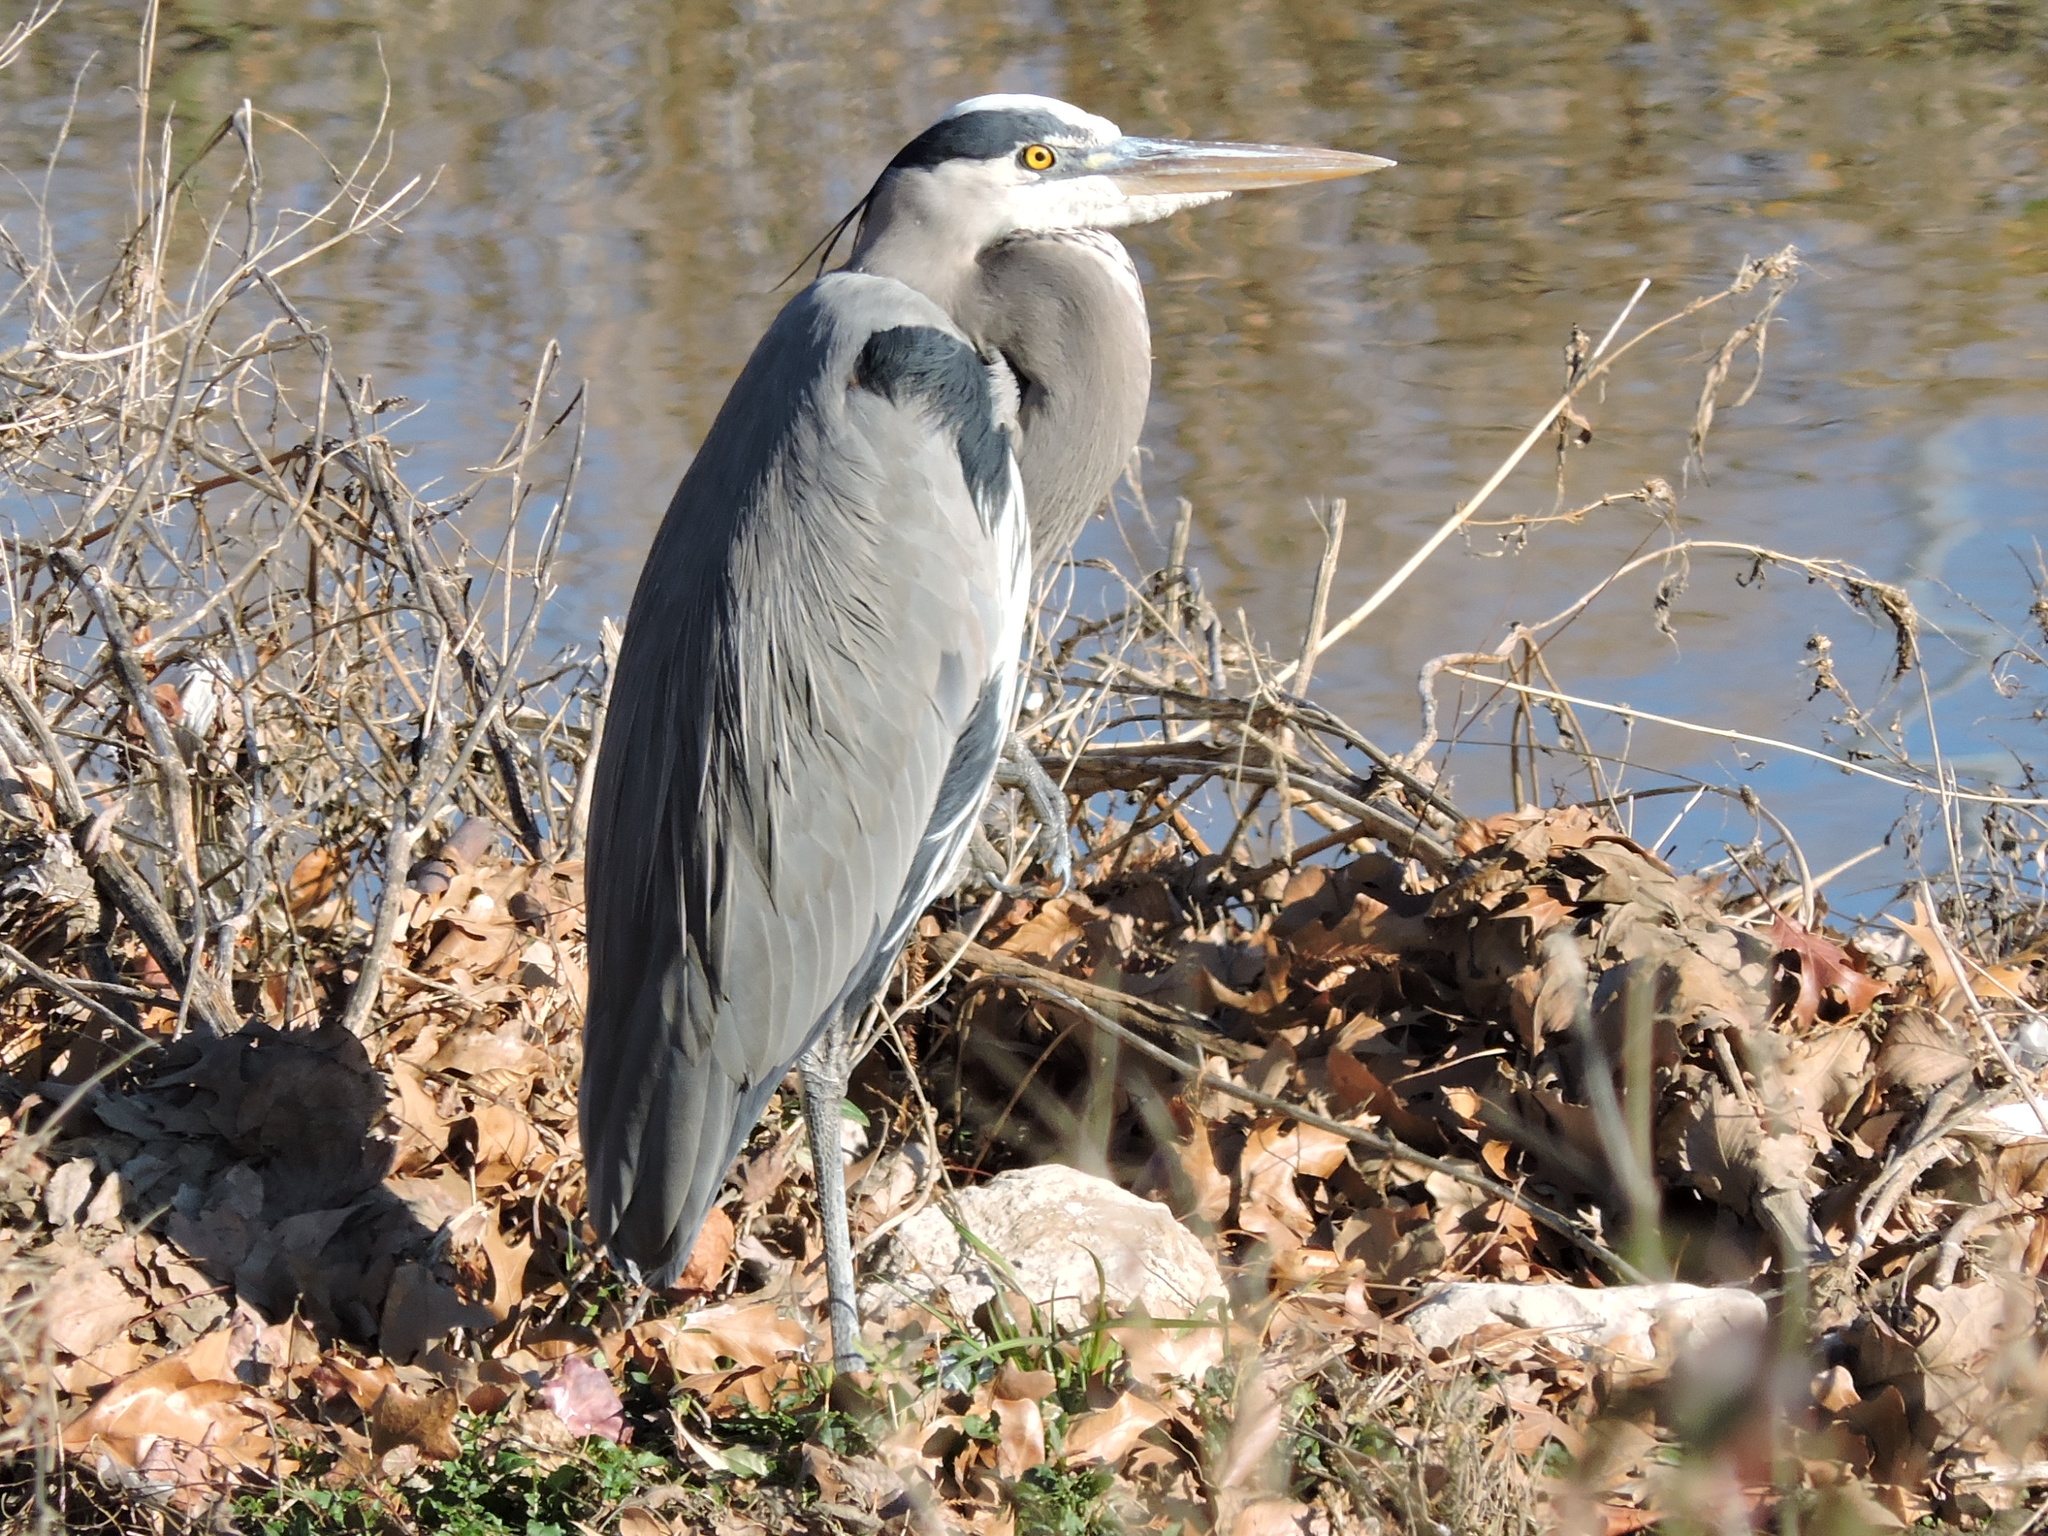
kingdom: Animalia
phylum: Chordata
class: Aves
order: Pelecaniformes
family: Ardeidae
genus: Ardea
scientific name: Ardea herodias
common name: Great blue heron
